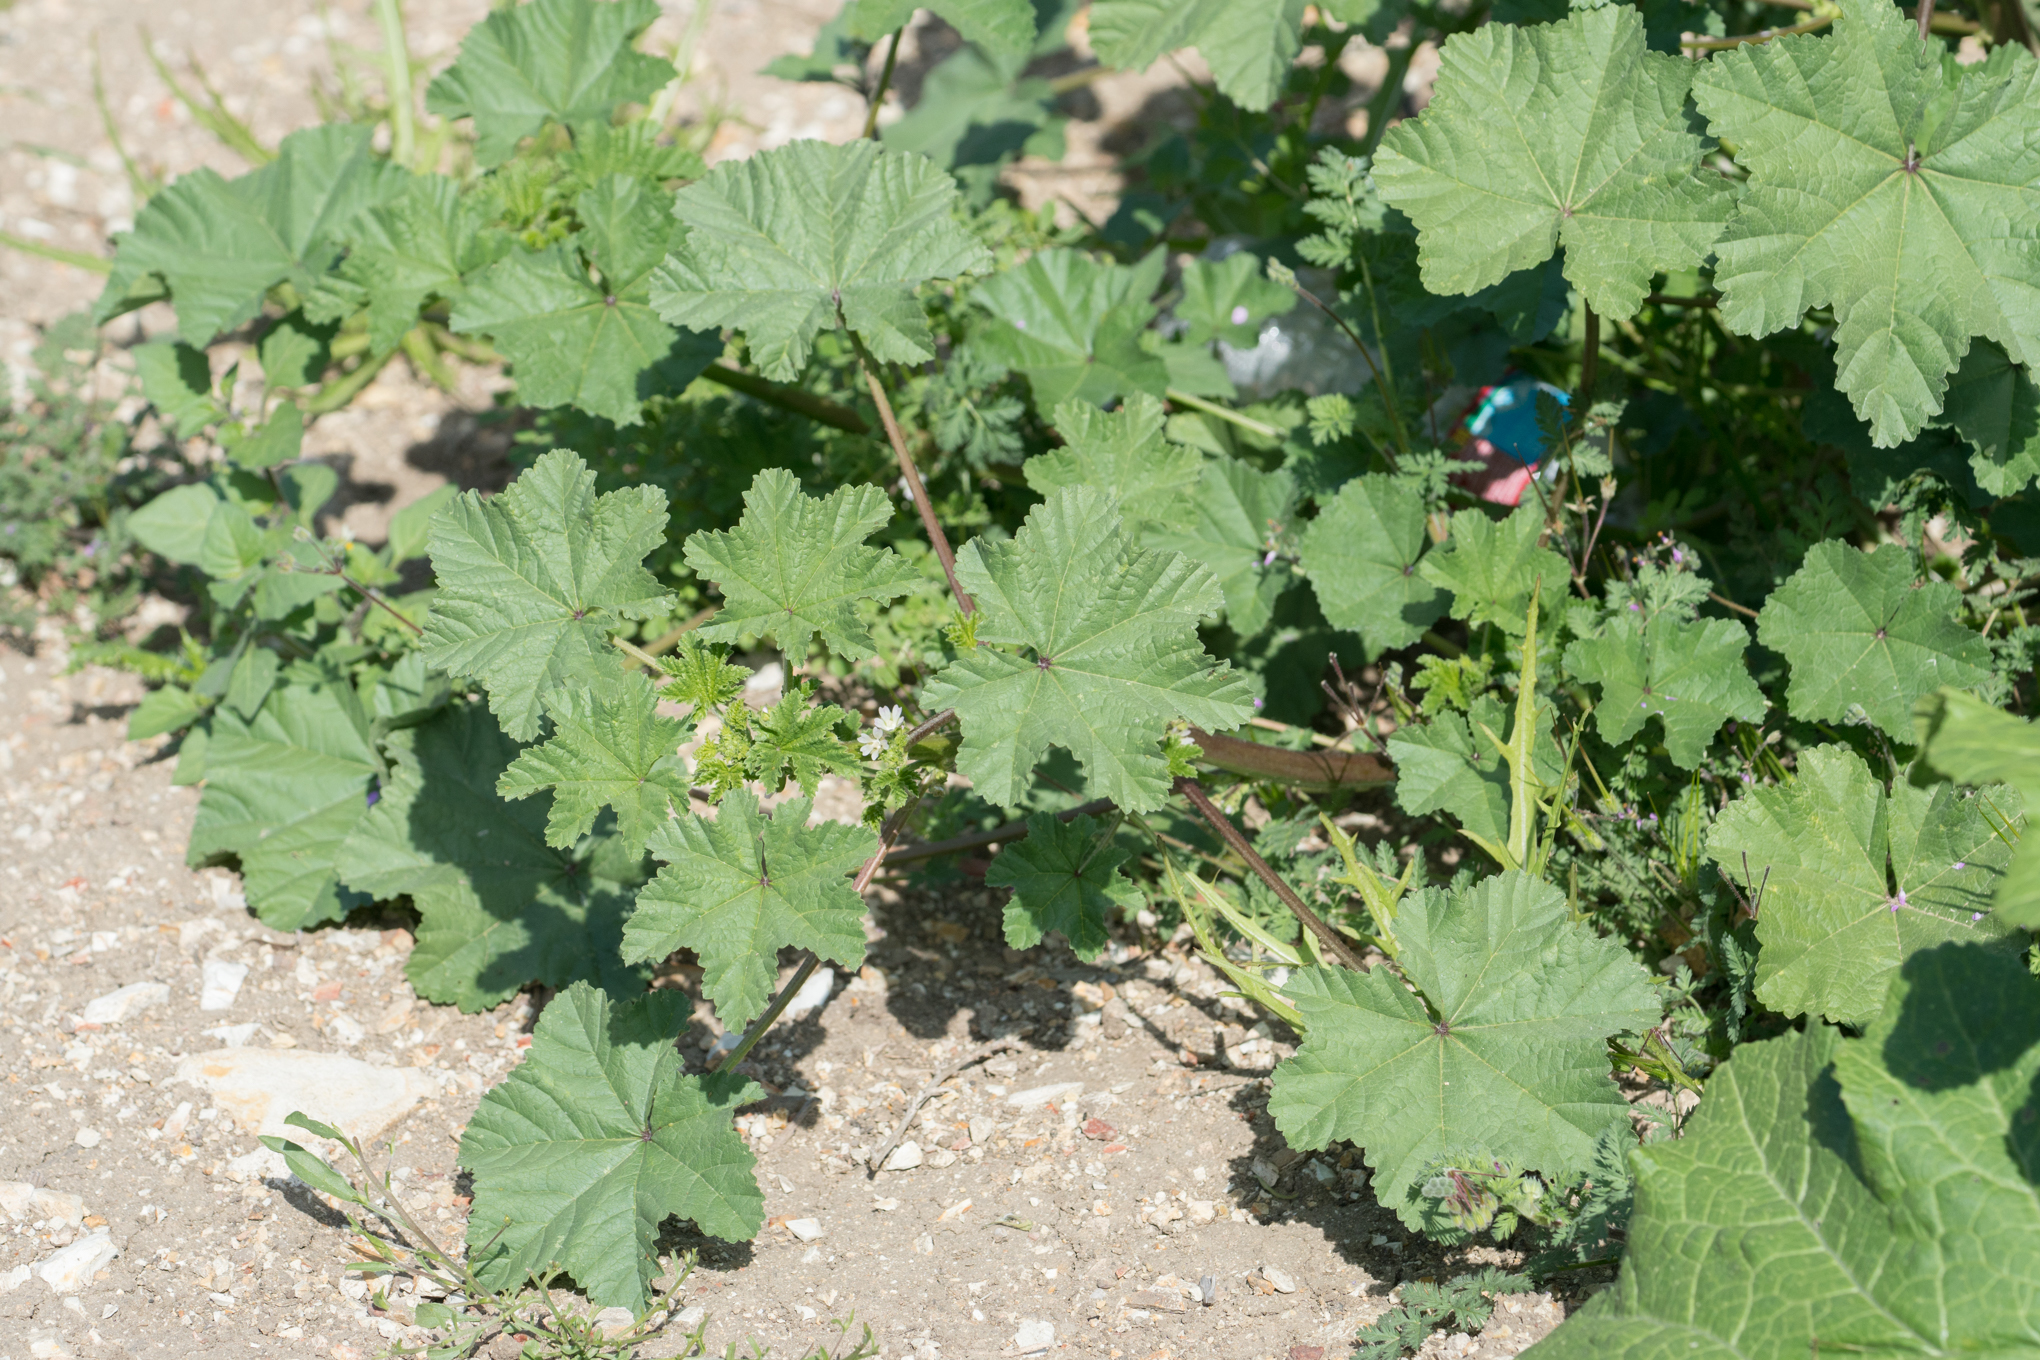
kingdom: Plantae
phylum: Tracheophyta
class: Magnoliopsida
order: Malvales
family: Malvaceae
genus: Malva
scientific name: Malva parviflora
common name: Least mallow
